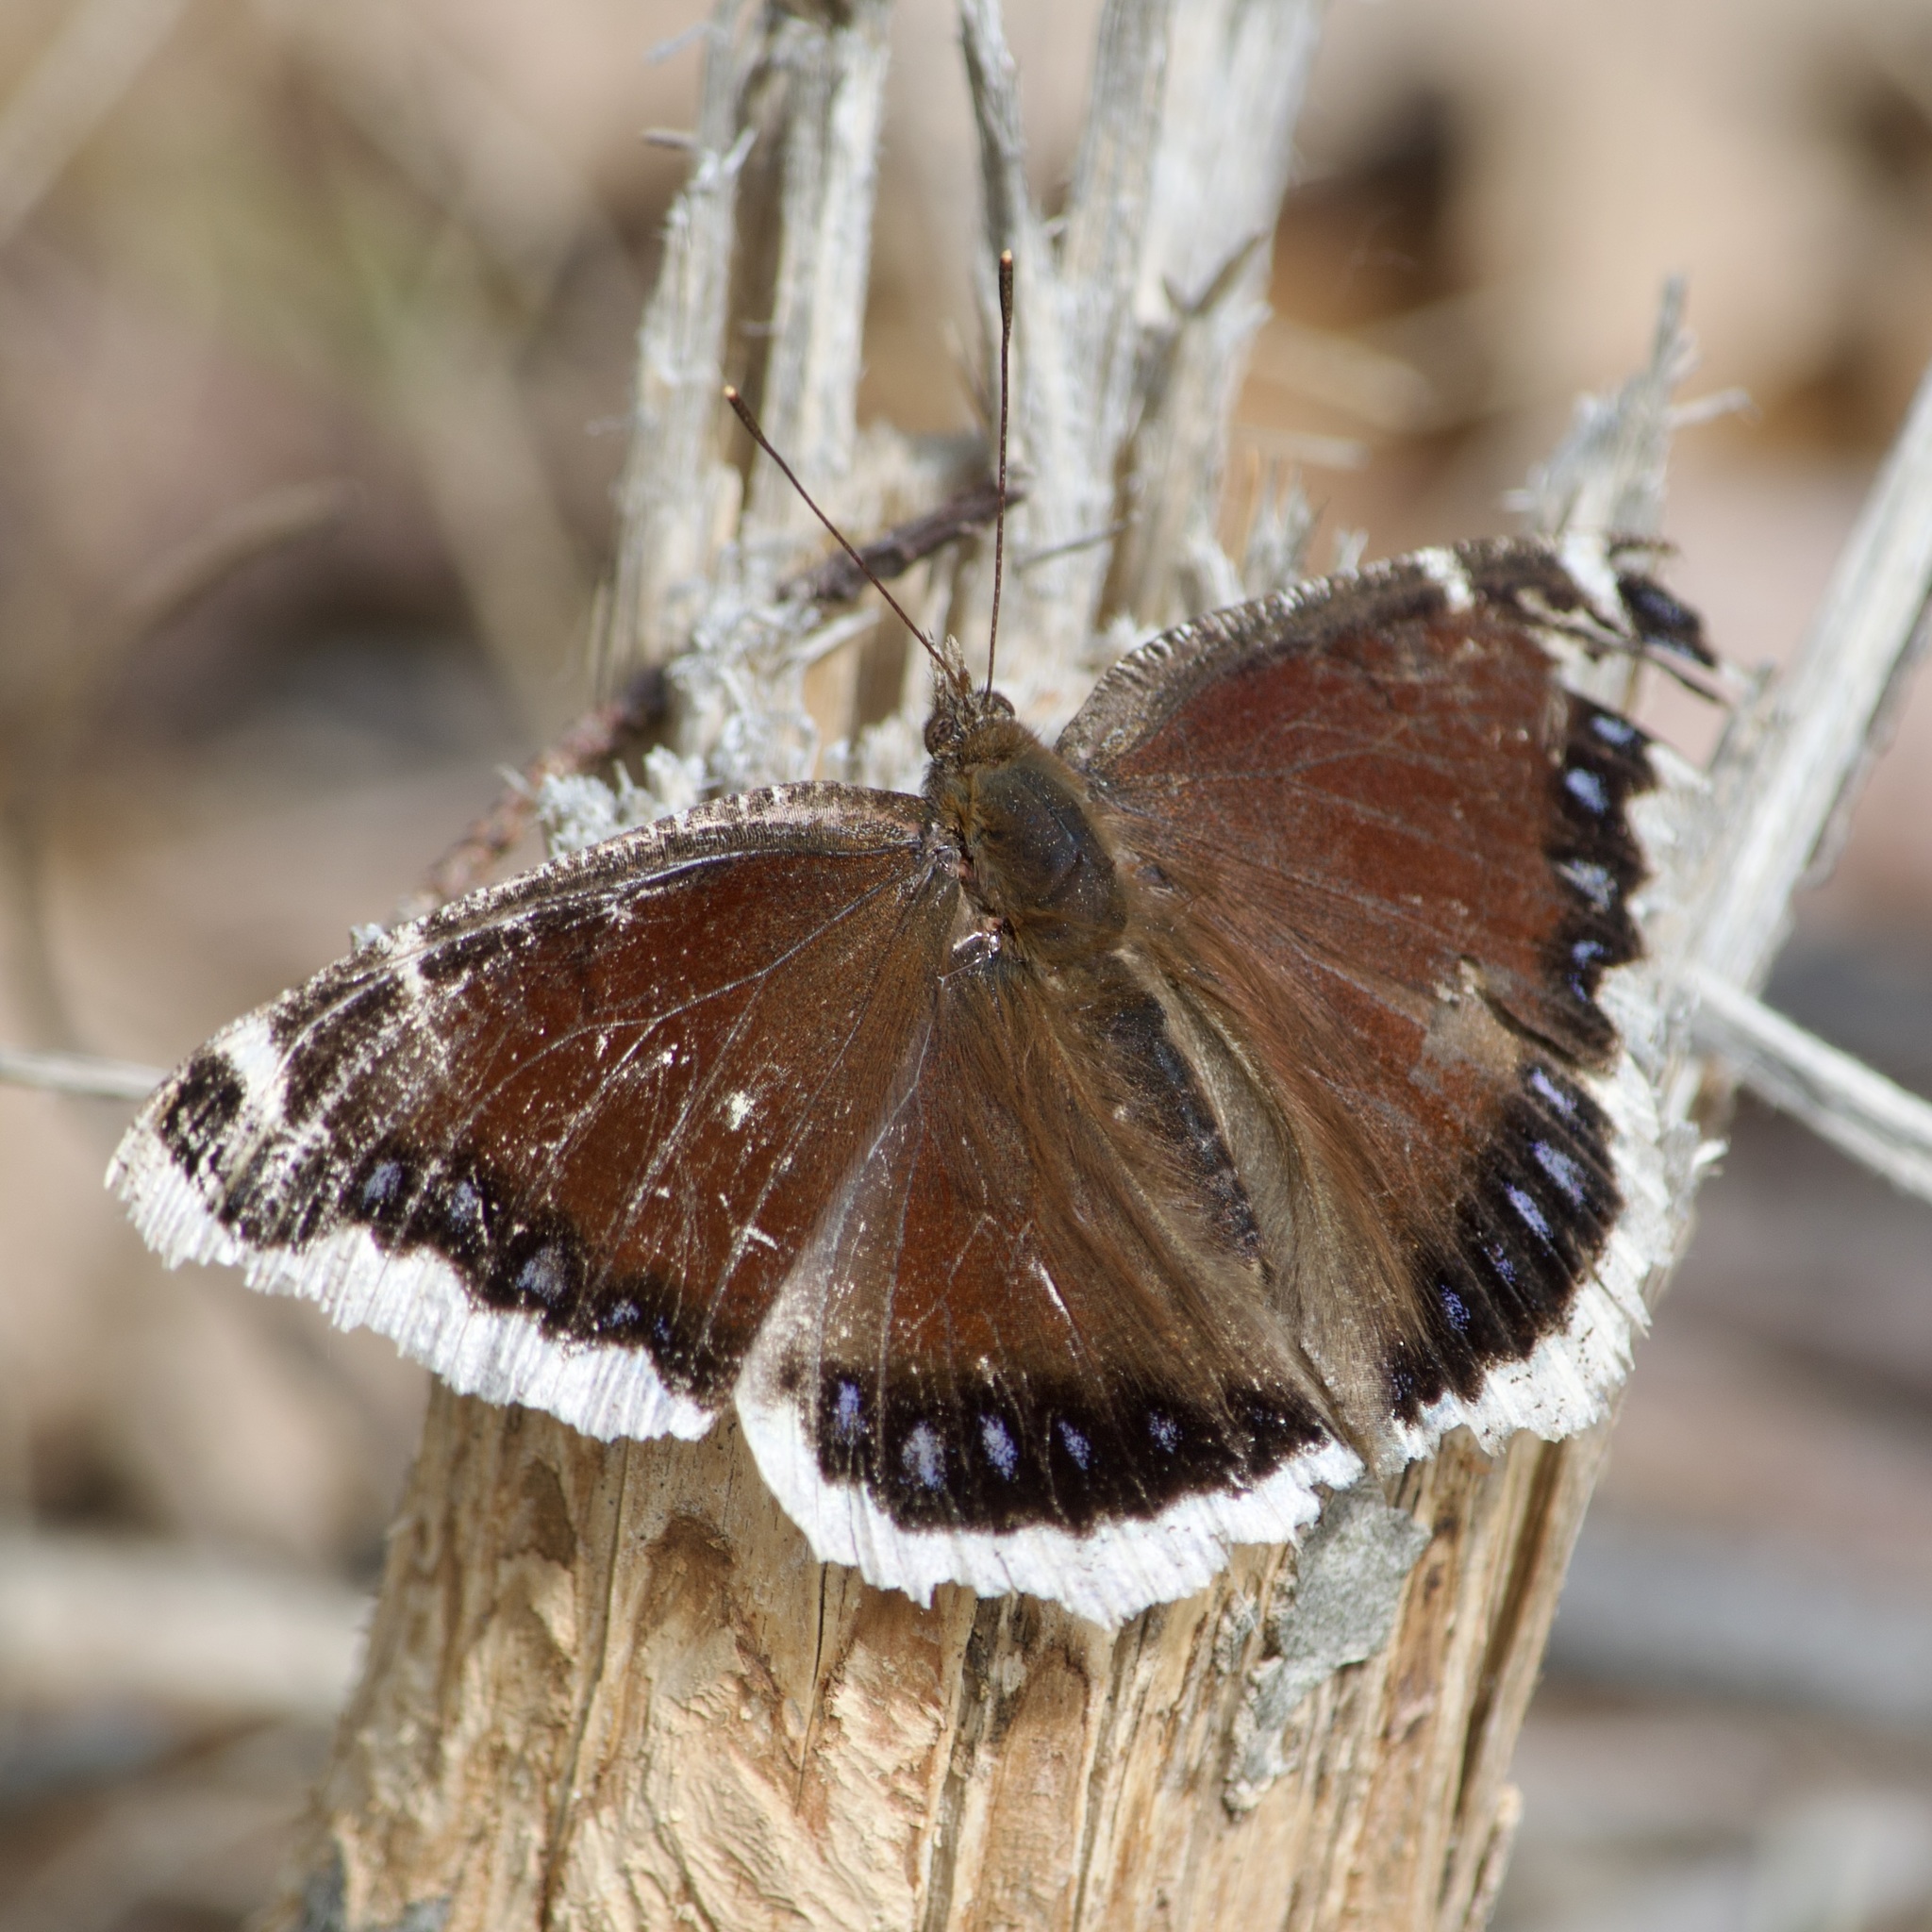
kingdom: Animalia
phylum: Arthropoda
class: Insecta
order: Lepidoptera
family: Nymphalidae
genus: Nymphalis
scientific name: Nymphalis antiopa
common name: Camberwell beauty
